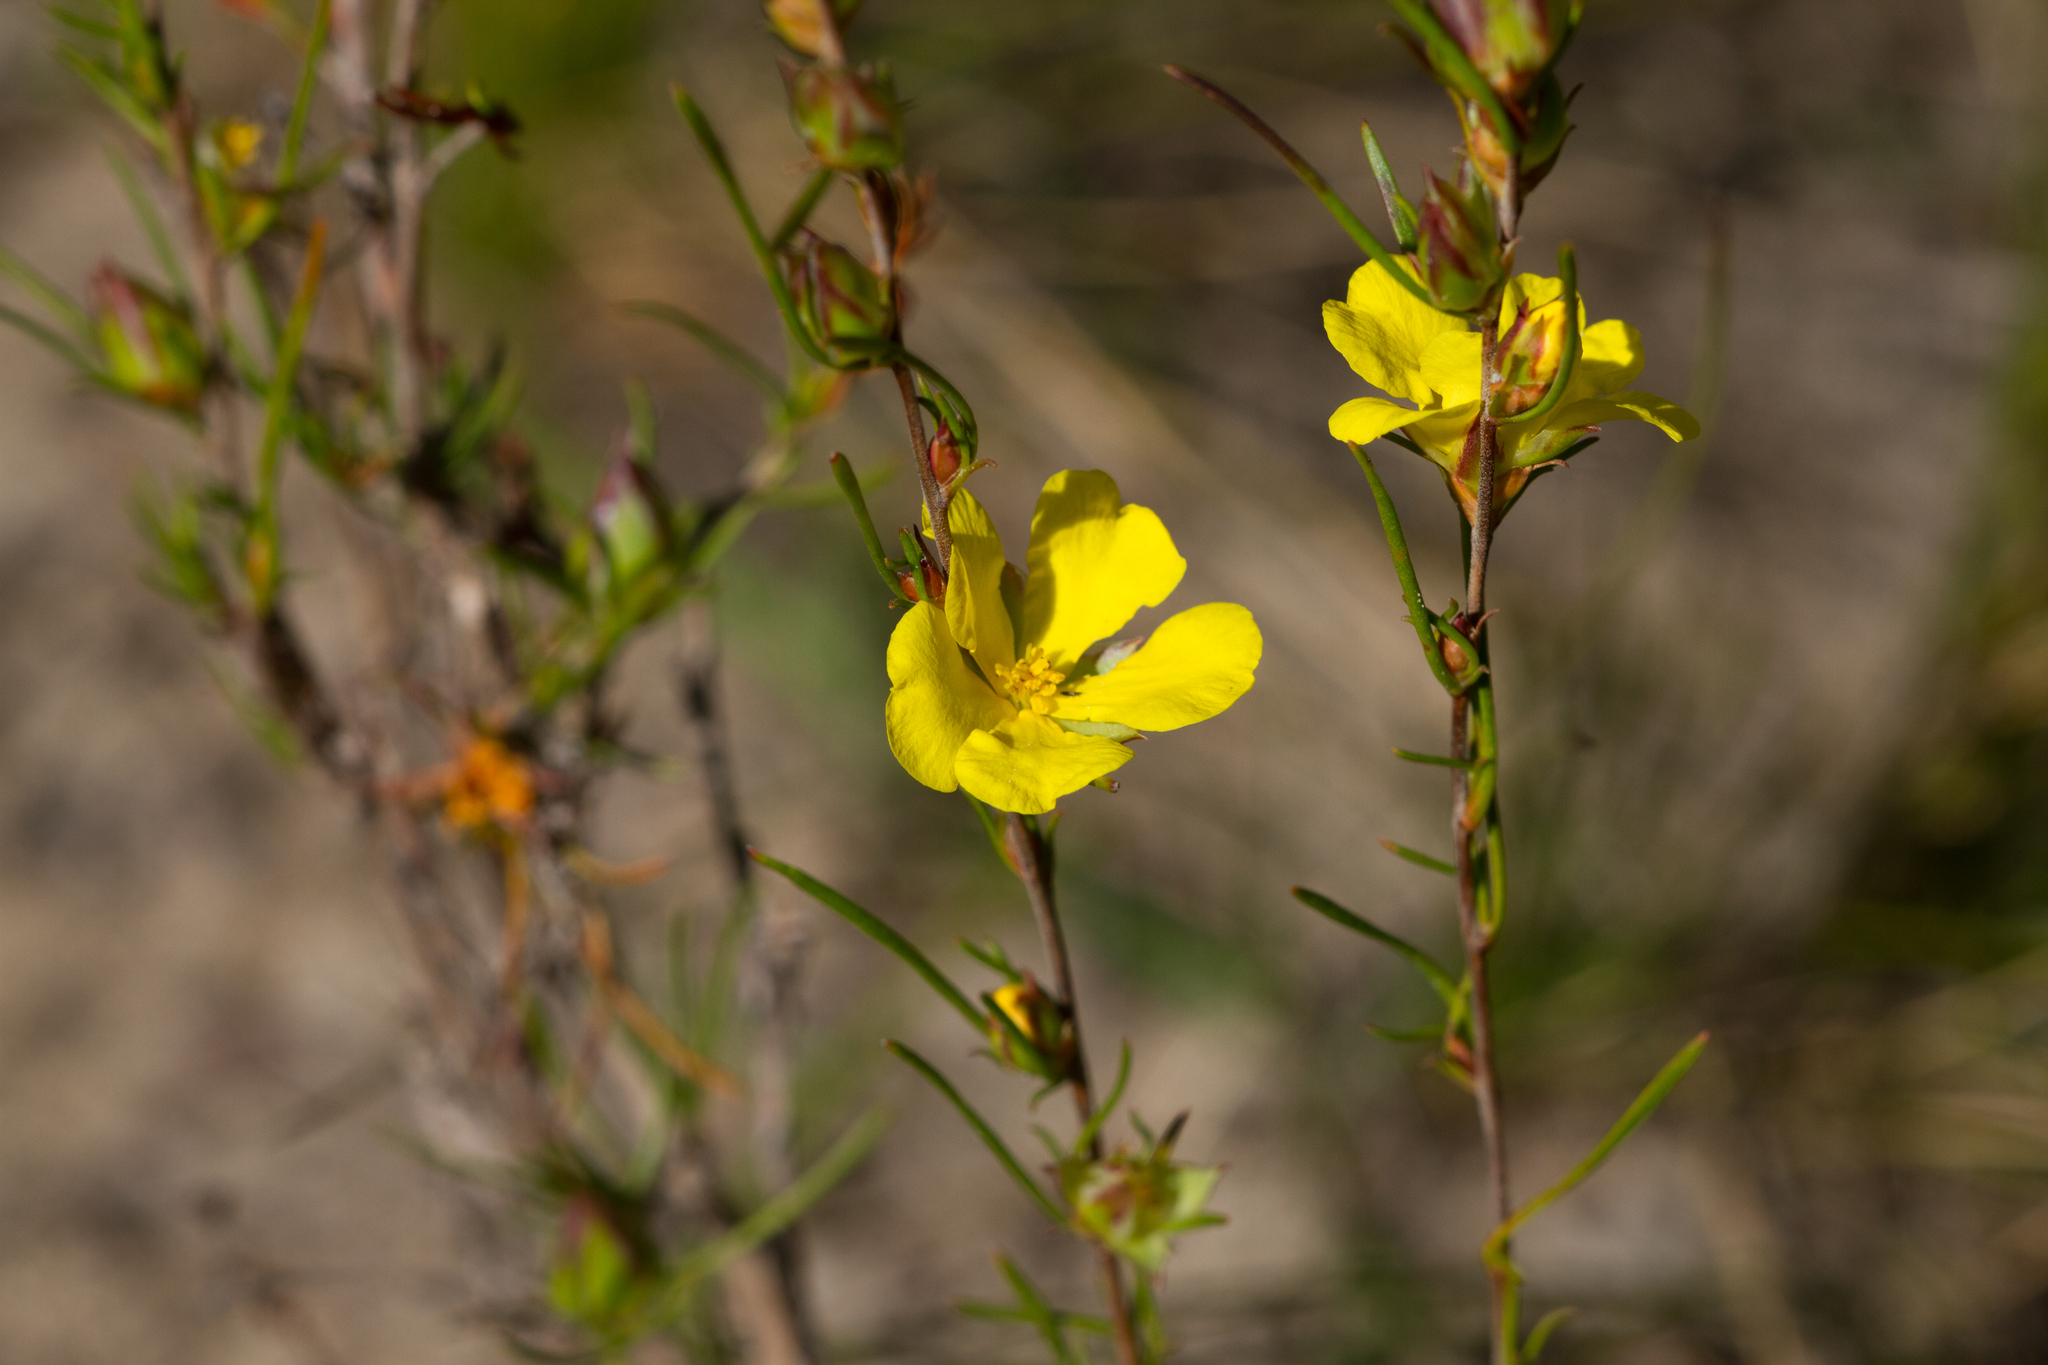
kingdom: Plantae
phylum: Tracheophyta
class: Magnoliopsida
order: Dilleniales
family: Dilleniaceae
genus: Hibbertia
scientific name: Hibbertia virgata
